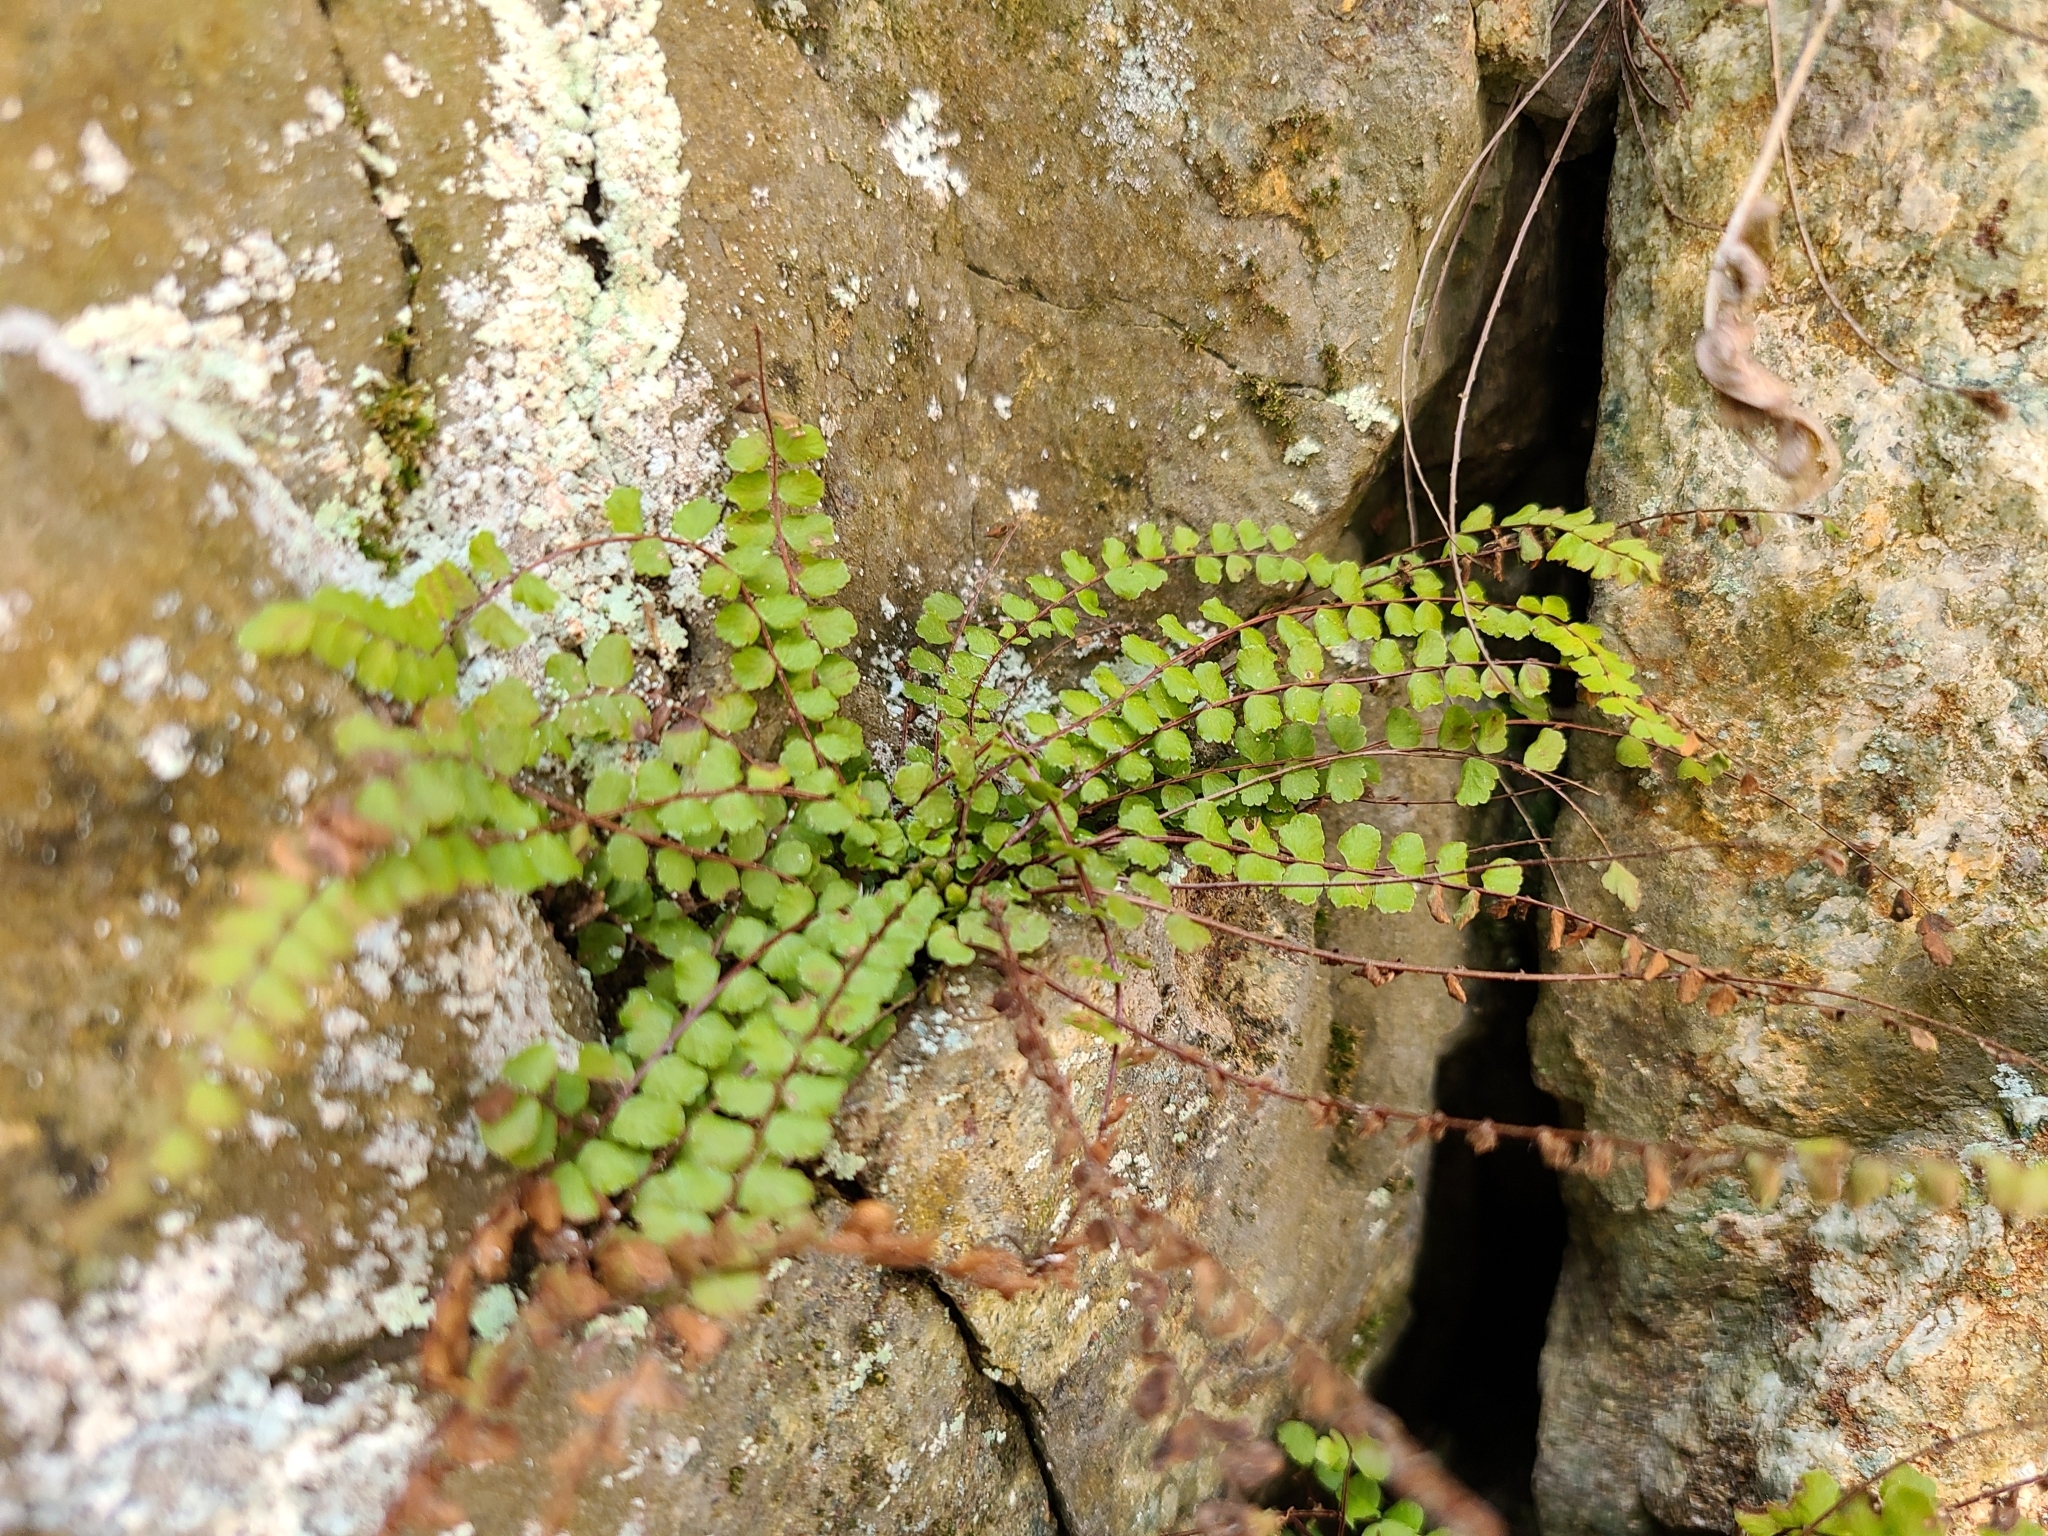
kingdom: Plantae
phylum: Tracheophyta
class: Polypodiopsida
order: Polypodiales
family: Aspleniaceae
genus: Asplenium
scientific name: Asplenium trichomanes
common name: Maidenhair spleenwort
